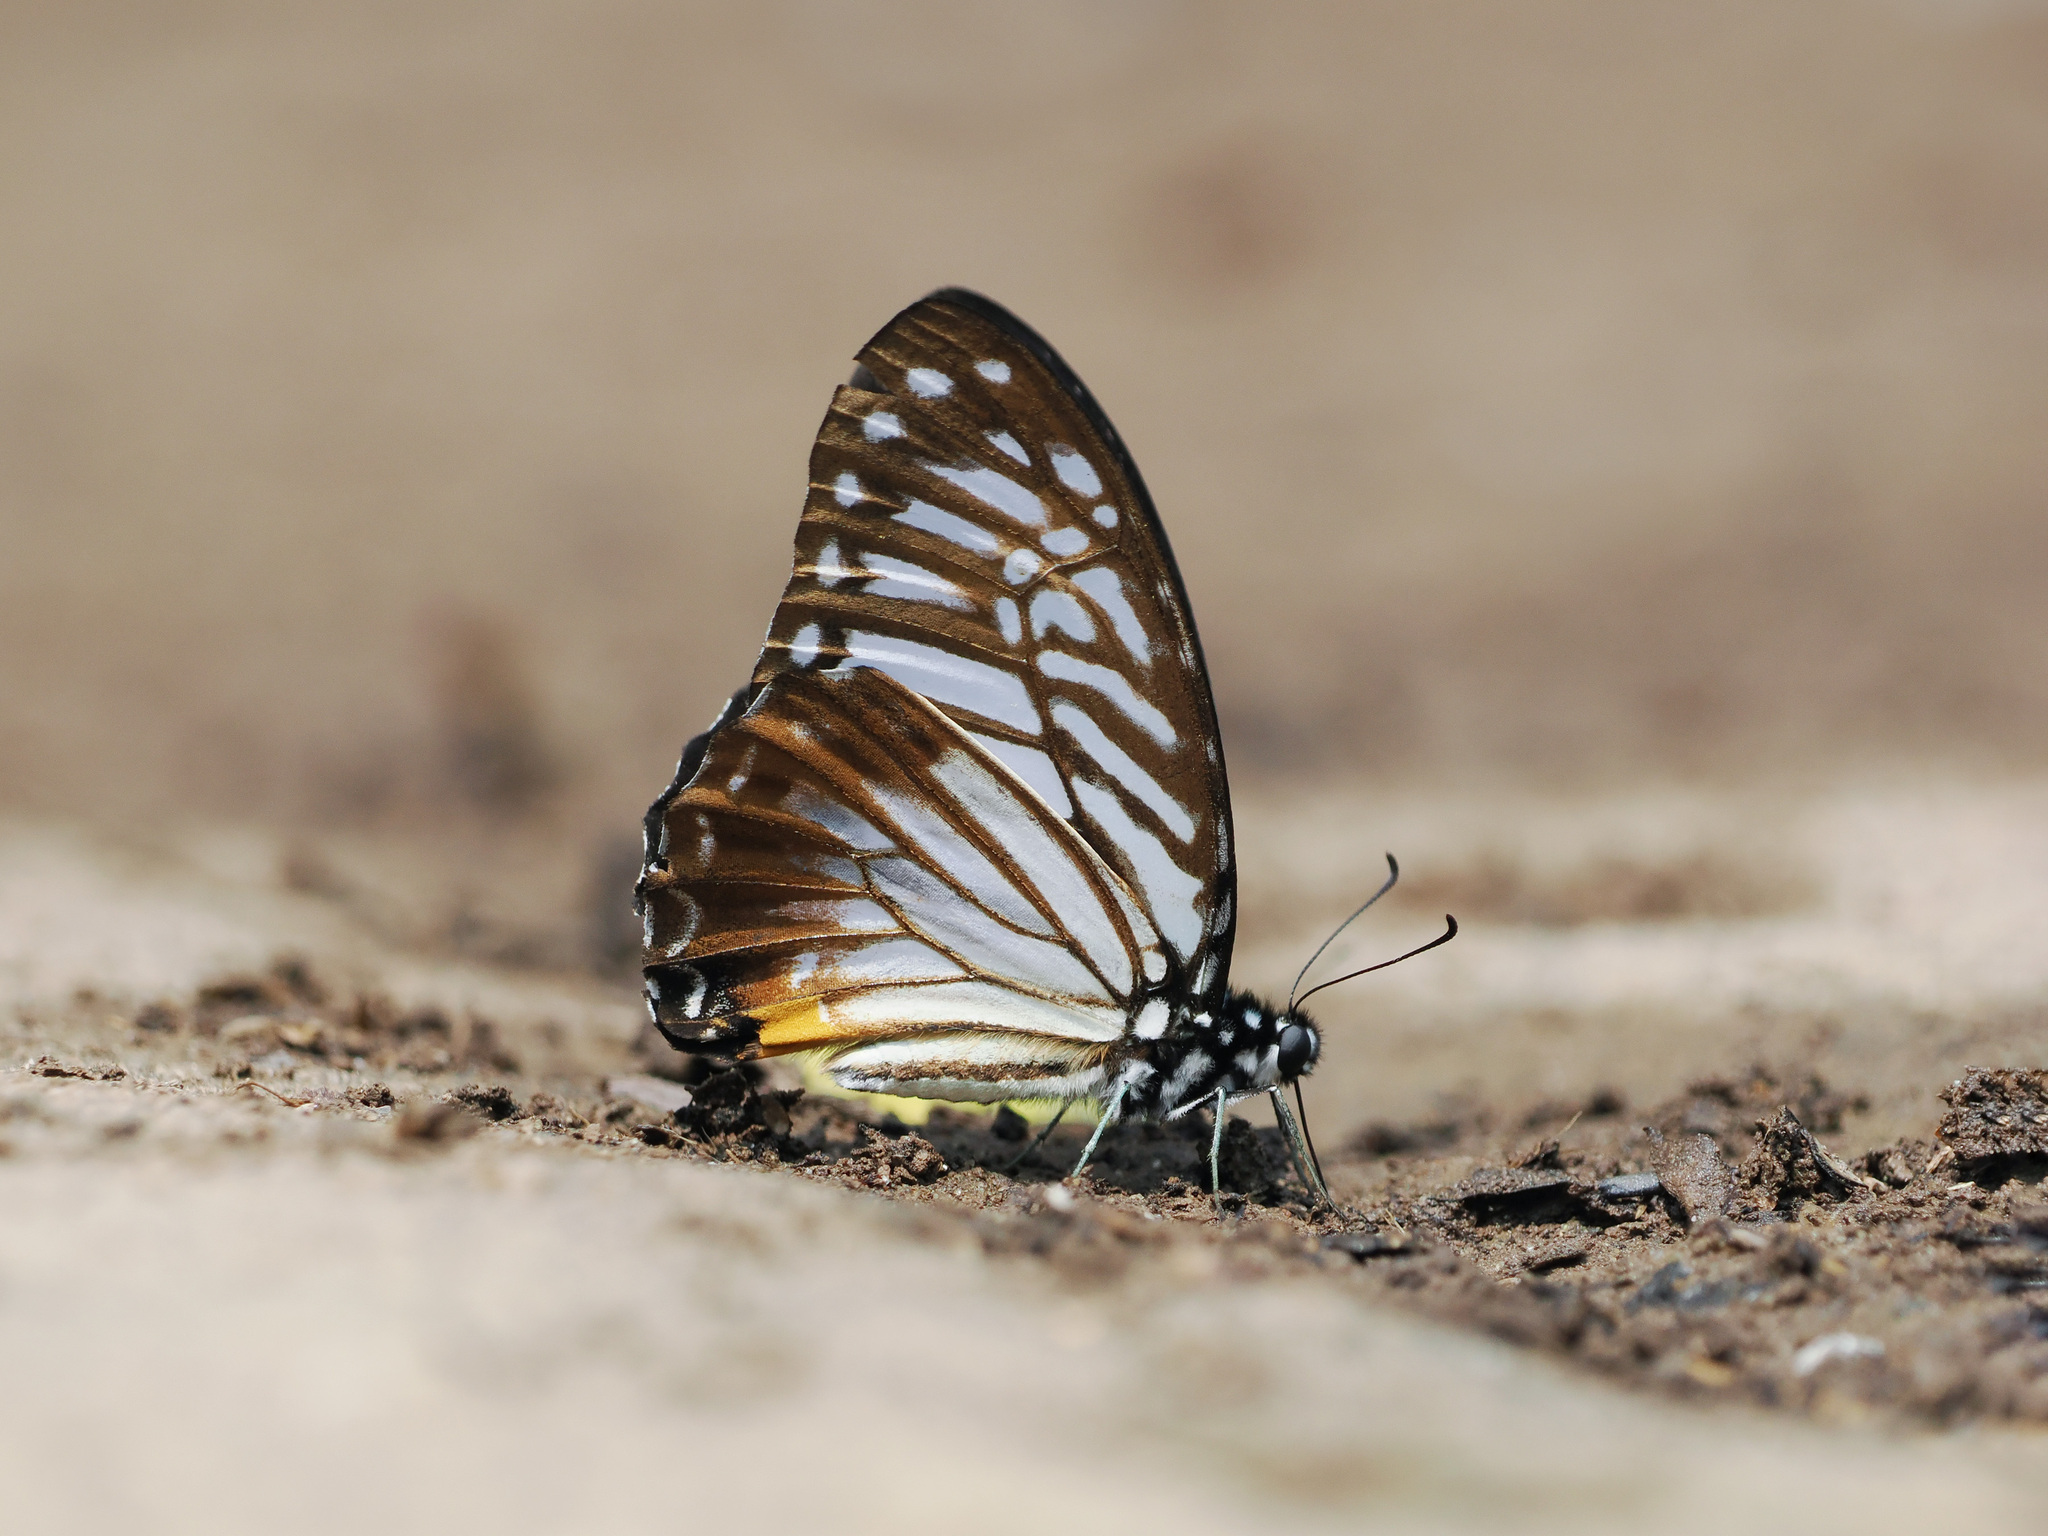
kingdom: Animalia
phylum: Arthropoda
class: Insecta
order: Lepidoptera
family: Papilionidae
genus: Graphium
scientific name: Graphium xenocles
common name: Great zebra
